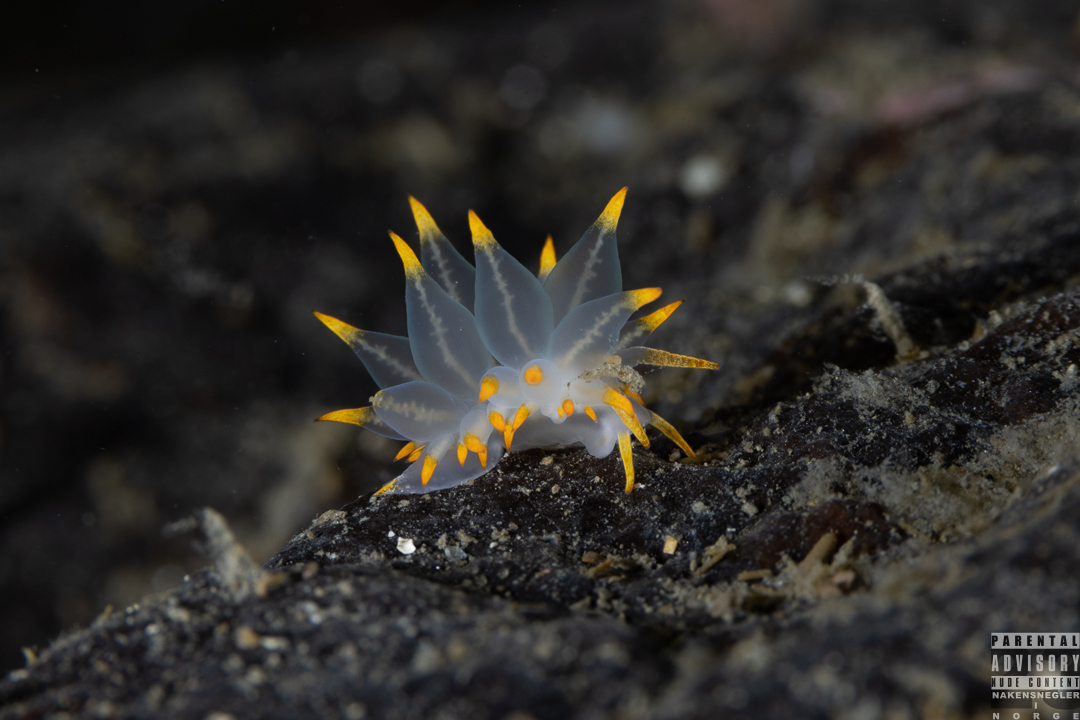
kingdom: Animalia
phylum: Mollusca
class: Gastropoda
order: Nudibranchia
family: Eubranchidae
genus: Amphorina
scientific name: Amphorina farrani
